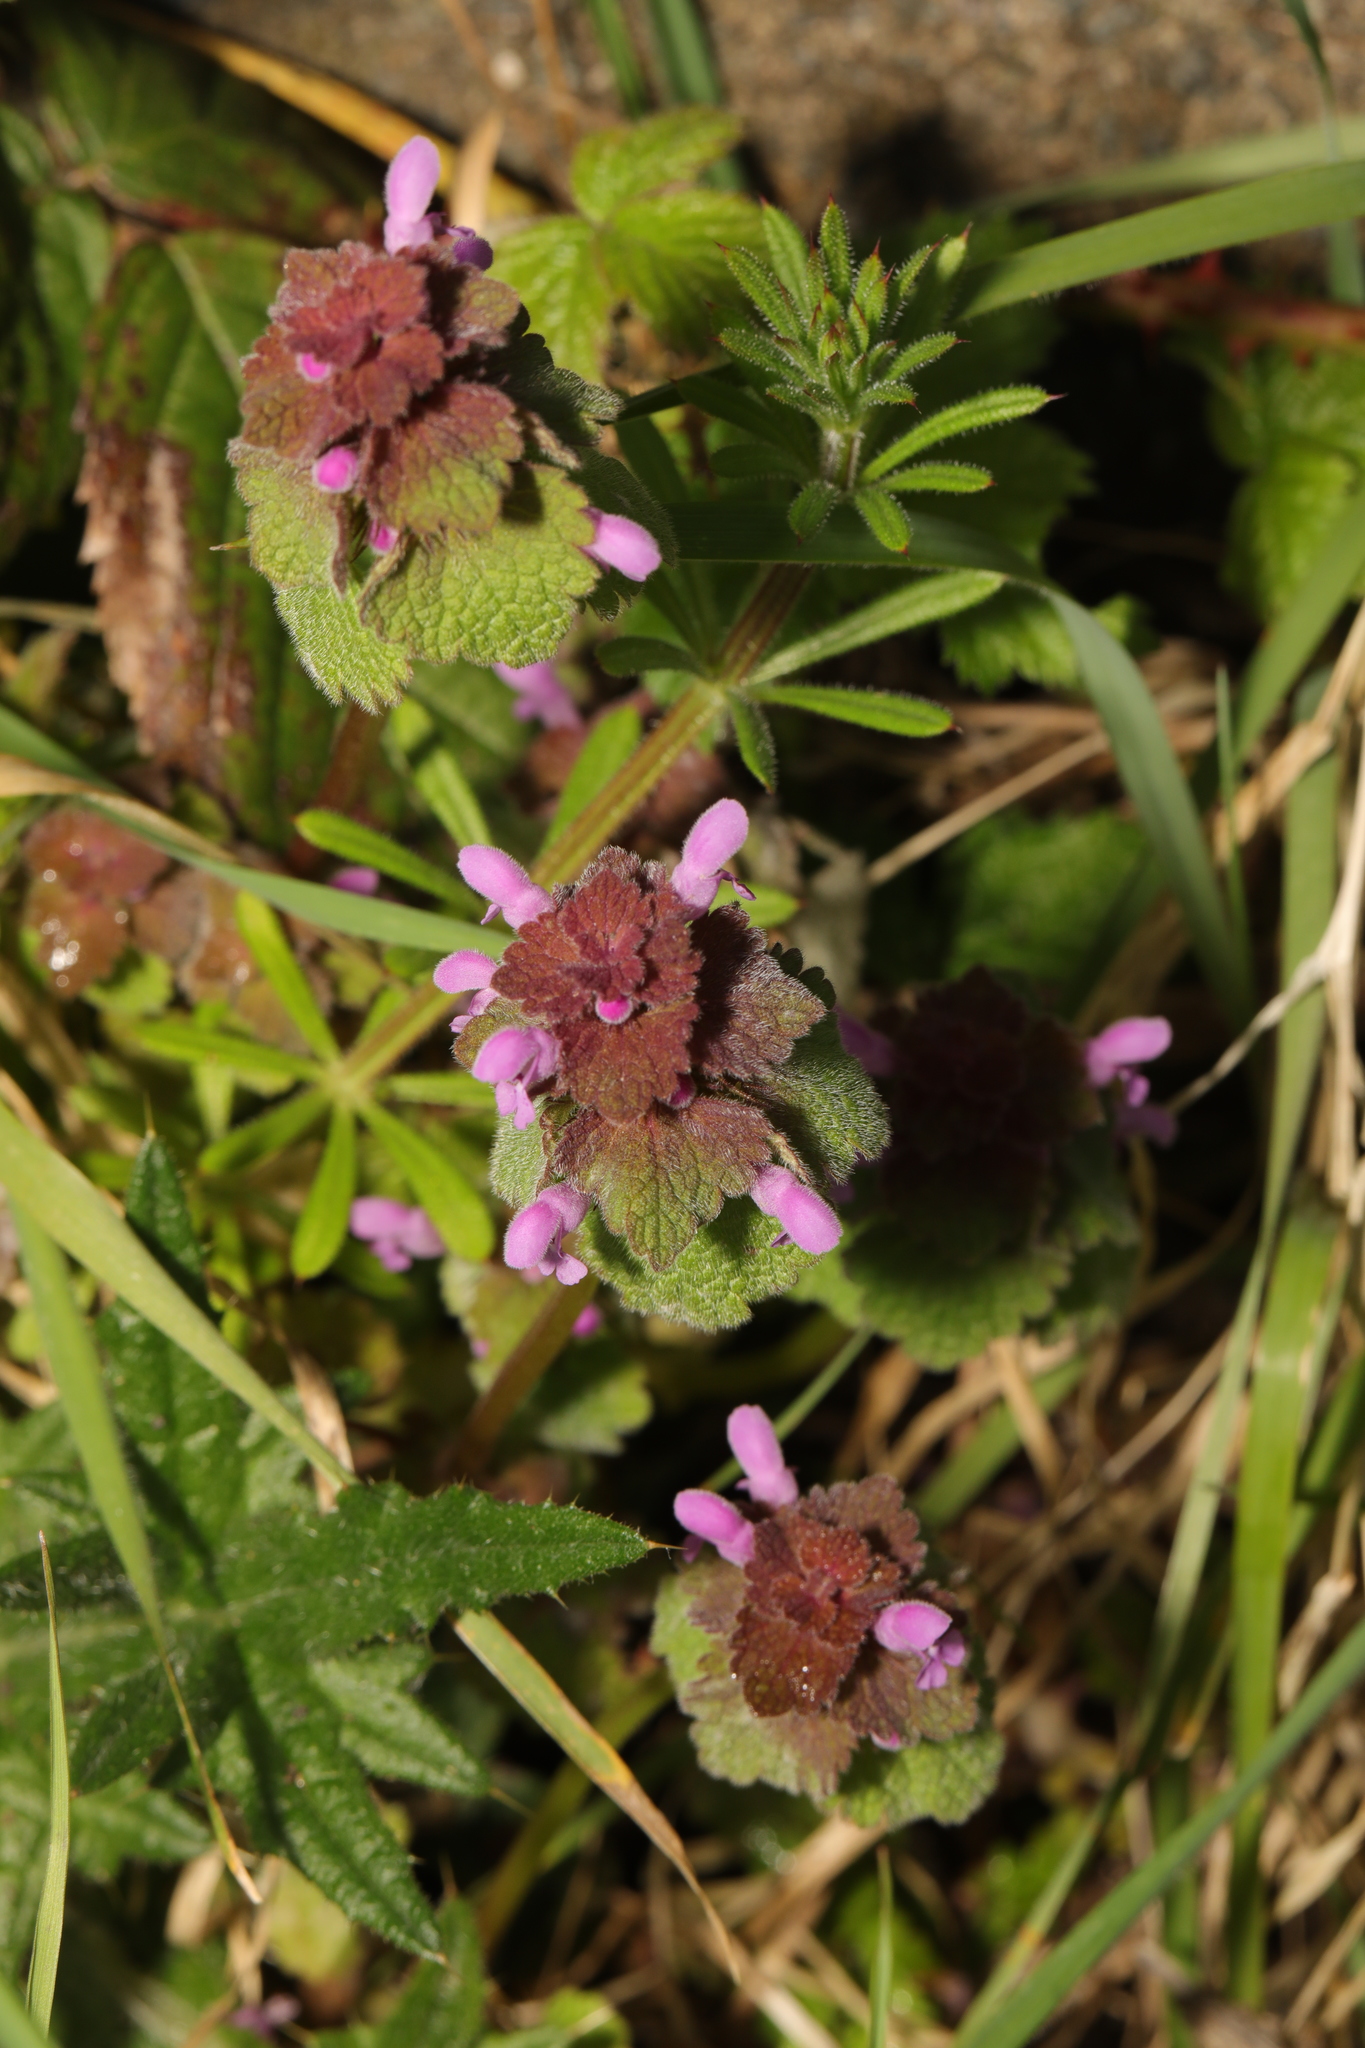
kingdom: Plantae
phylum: Tracheophyta
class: Magnoliopsida
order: Lamiales
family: Lamiaceae
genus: Lamium
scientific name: Lamium purpureum
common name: Red dead-nettle
